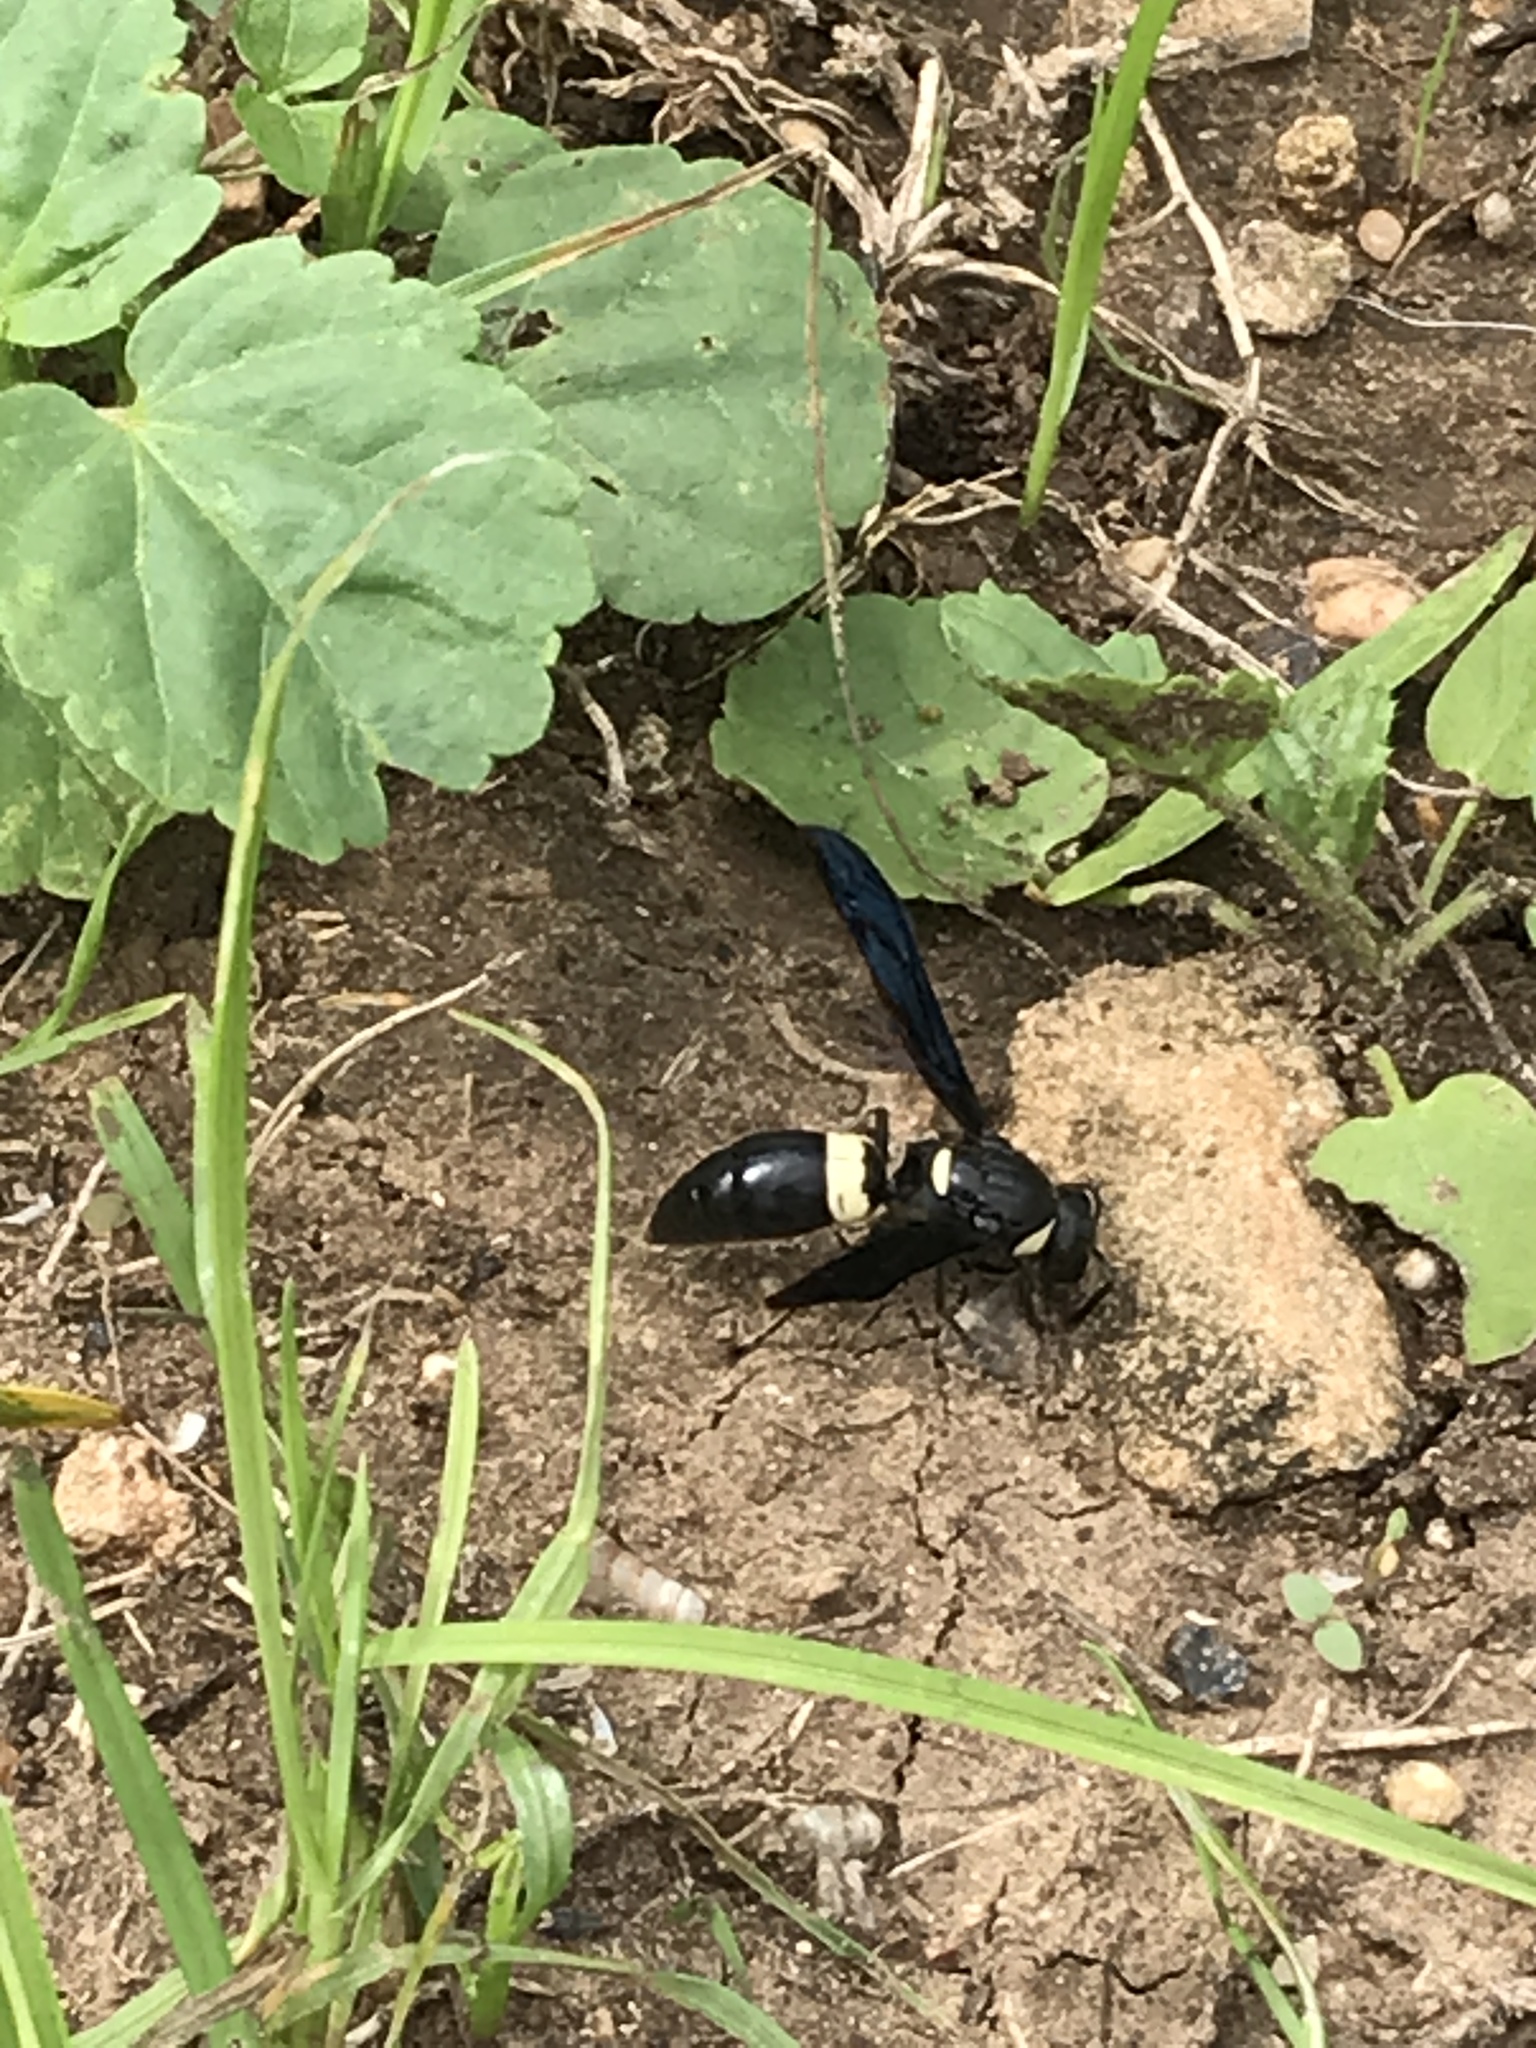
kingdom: Animalia
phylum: Arthropoda
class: Insecta
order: Hymenoptera
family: Eumenidae
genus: Monobia
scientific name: Monobia quadridens
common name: Four-toothed mason wasp
